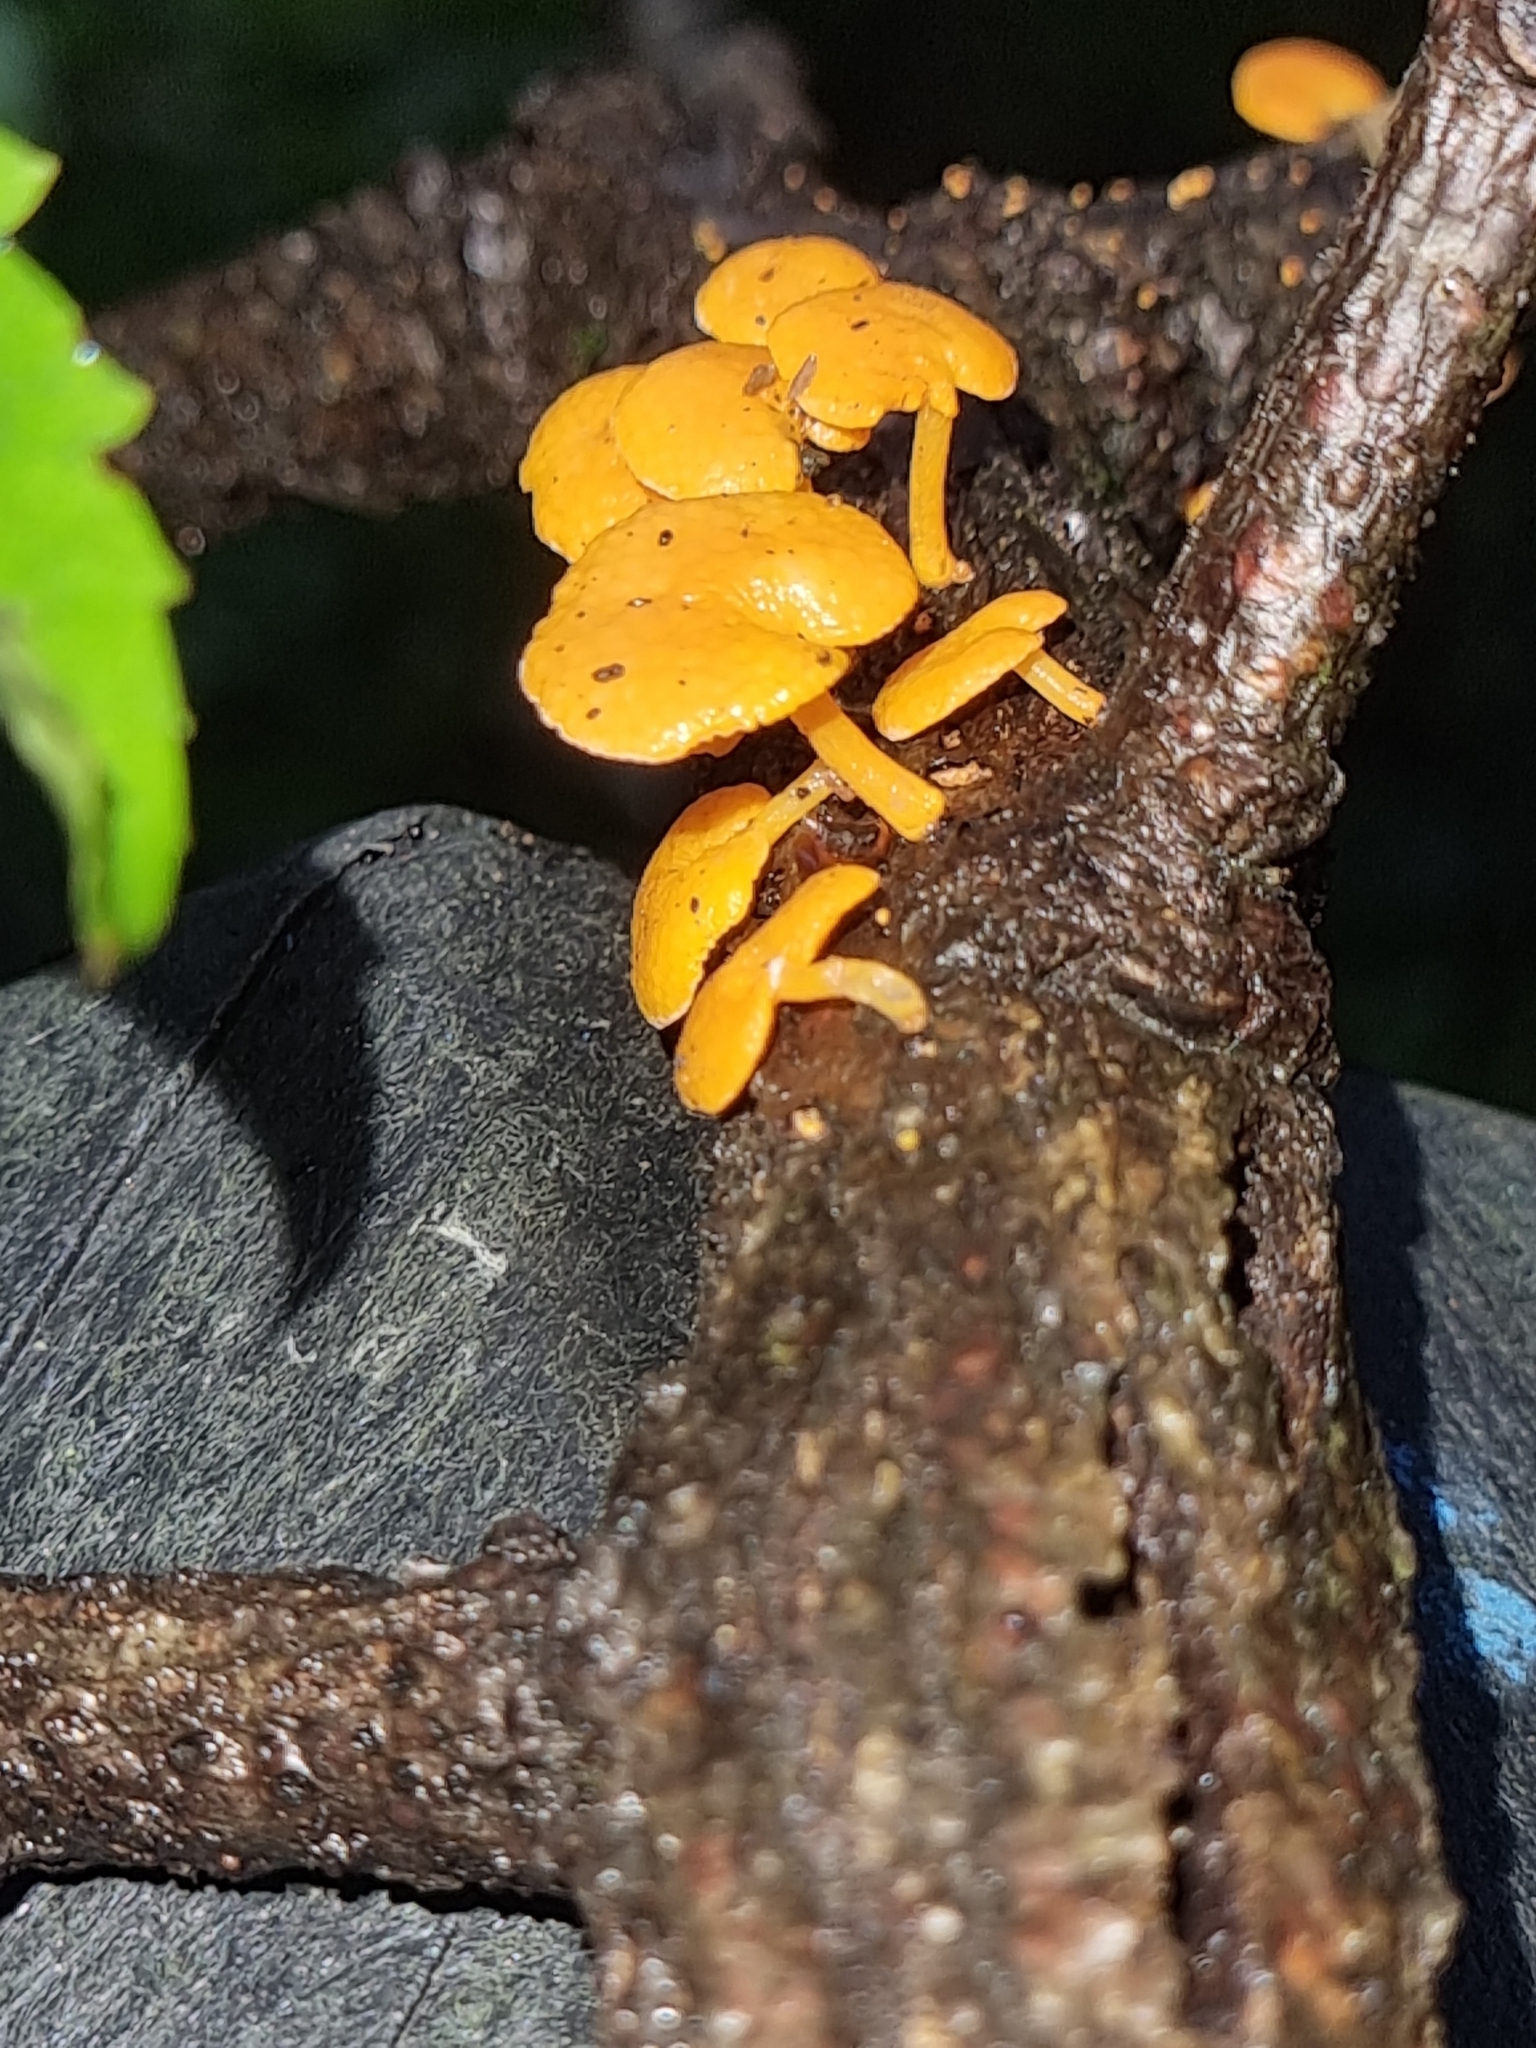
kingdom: Fungi
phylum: Basidiomycota
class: Agaricomycetes
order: Agaricales
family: Mycenaceae
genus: Favolaschia
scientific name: Favolaschia claudopus
